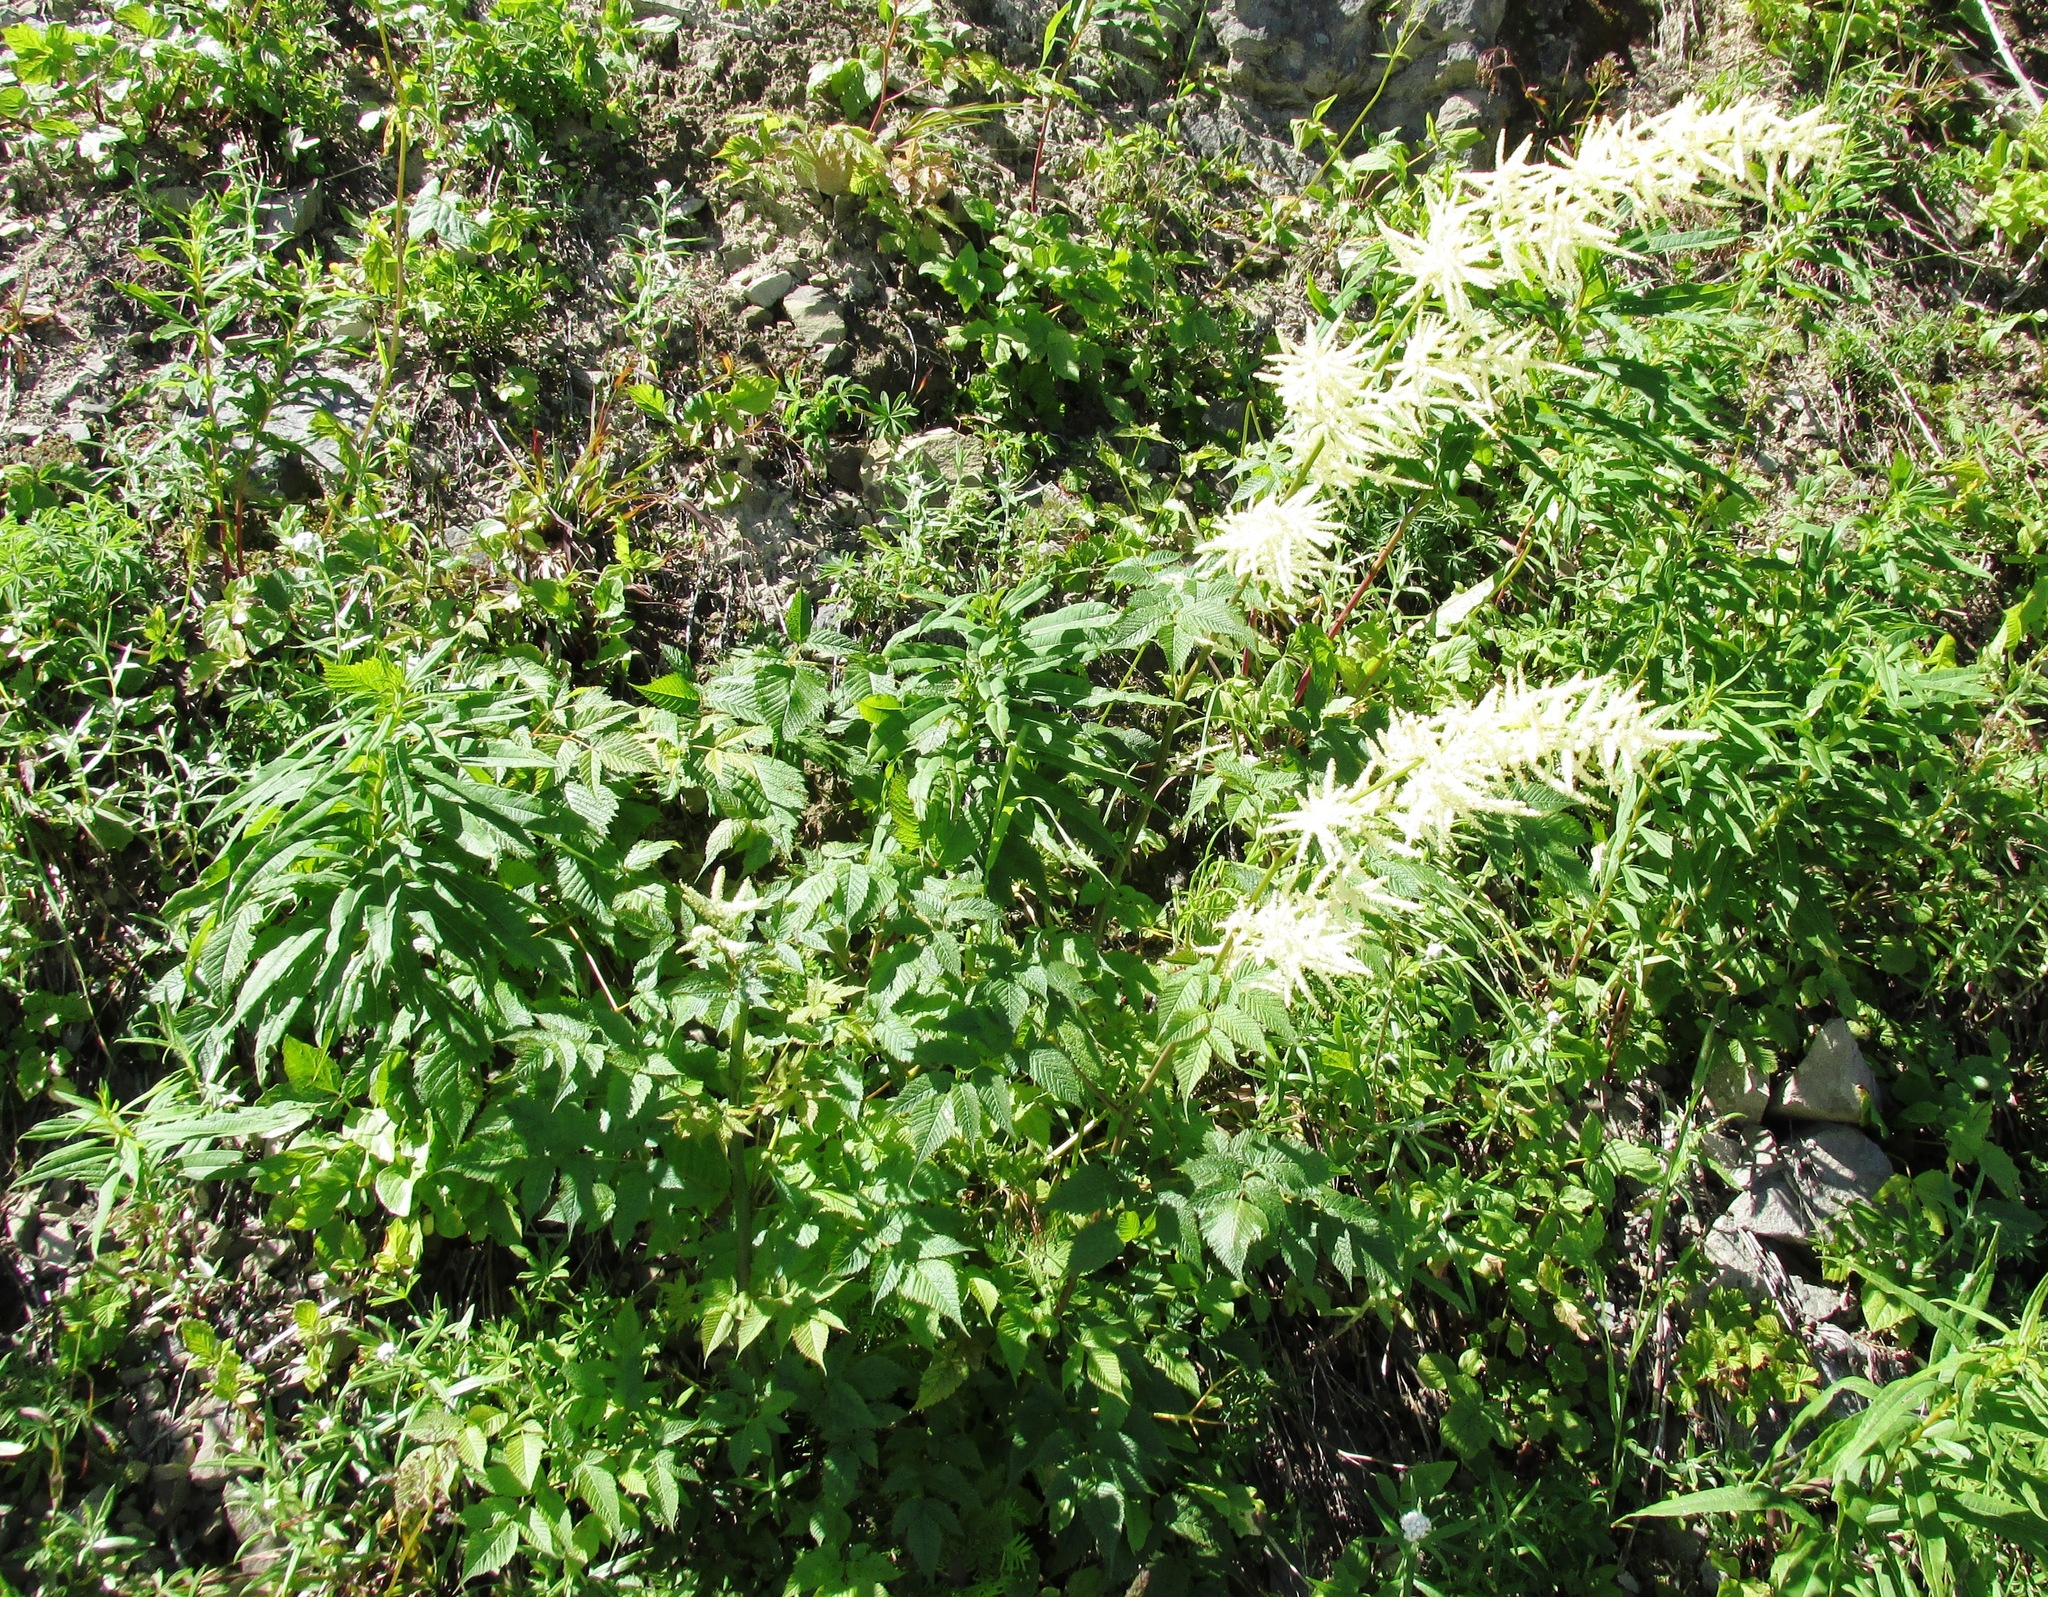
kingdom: Plantae
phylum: Tracheophyta
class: Magnoliopsida
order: Rosales
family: Rosaceae
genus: Aruncus
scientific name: Aruncus dioicus
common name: Buck's-beard
